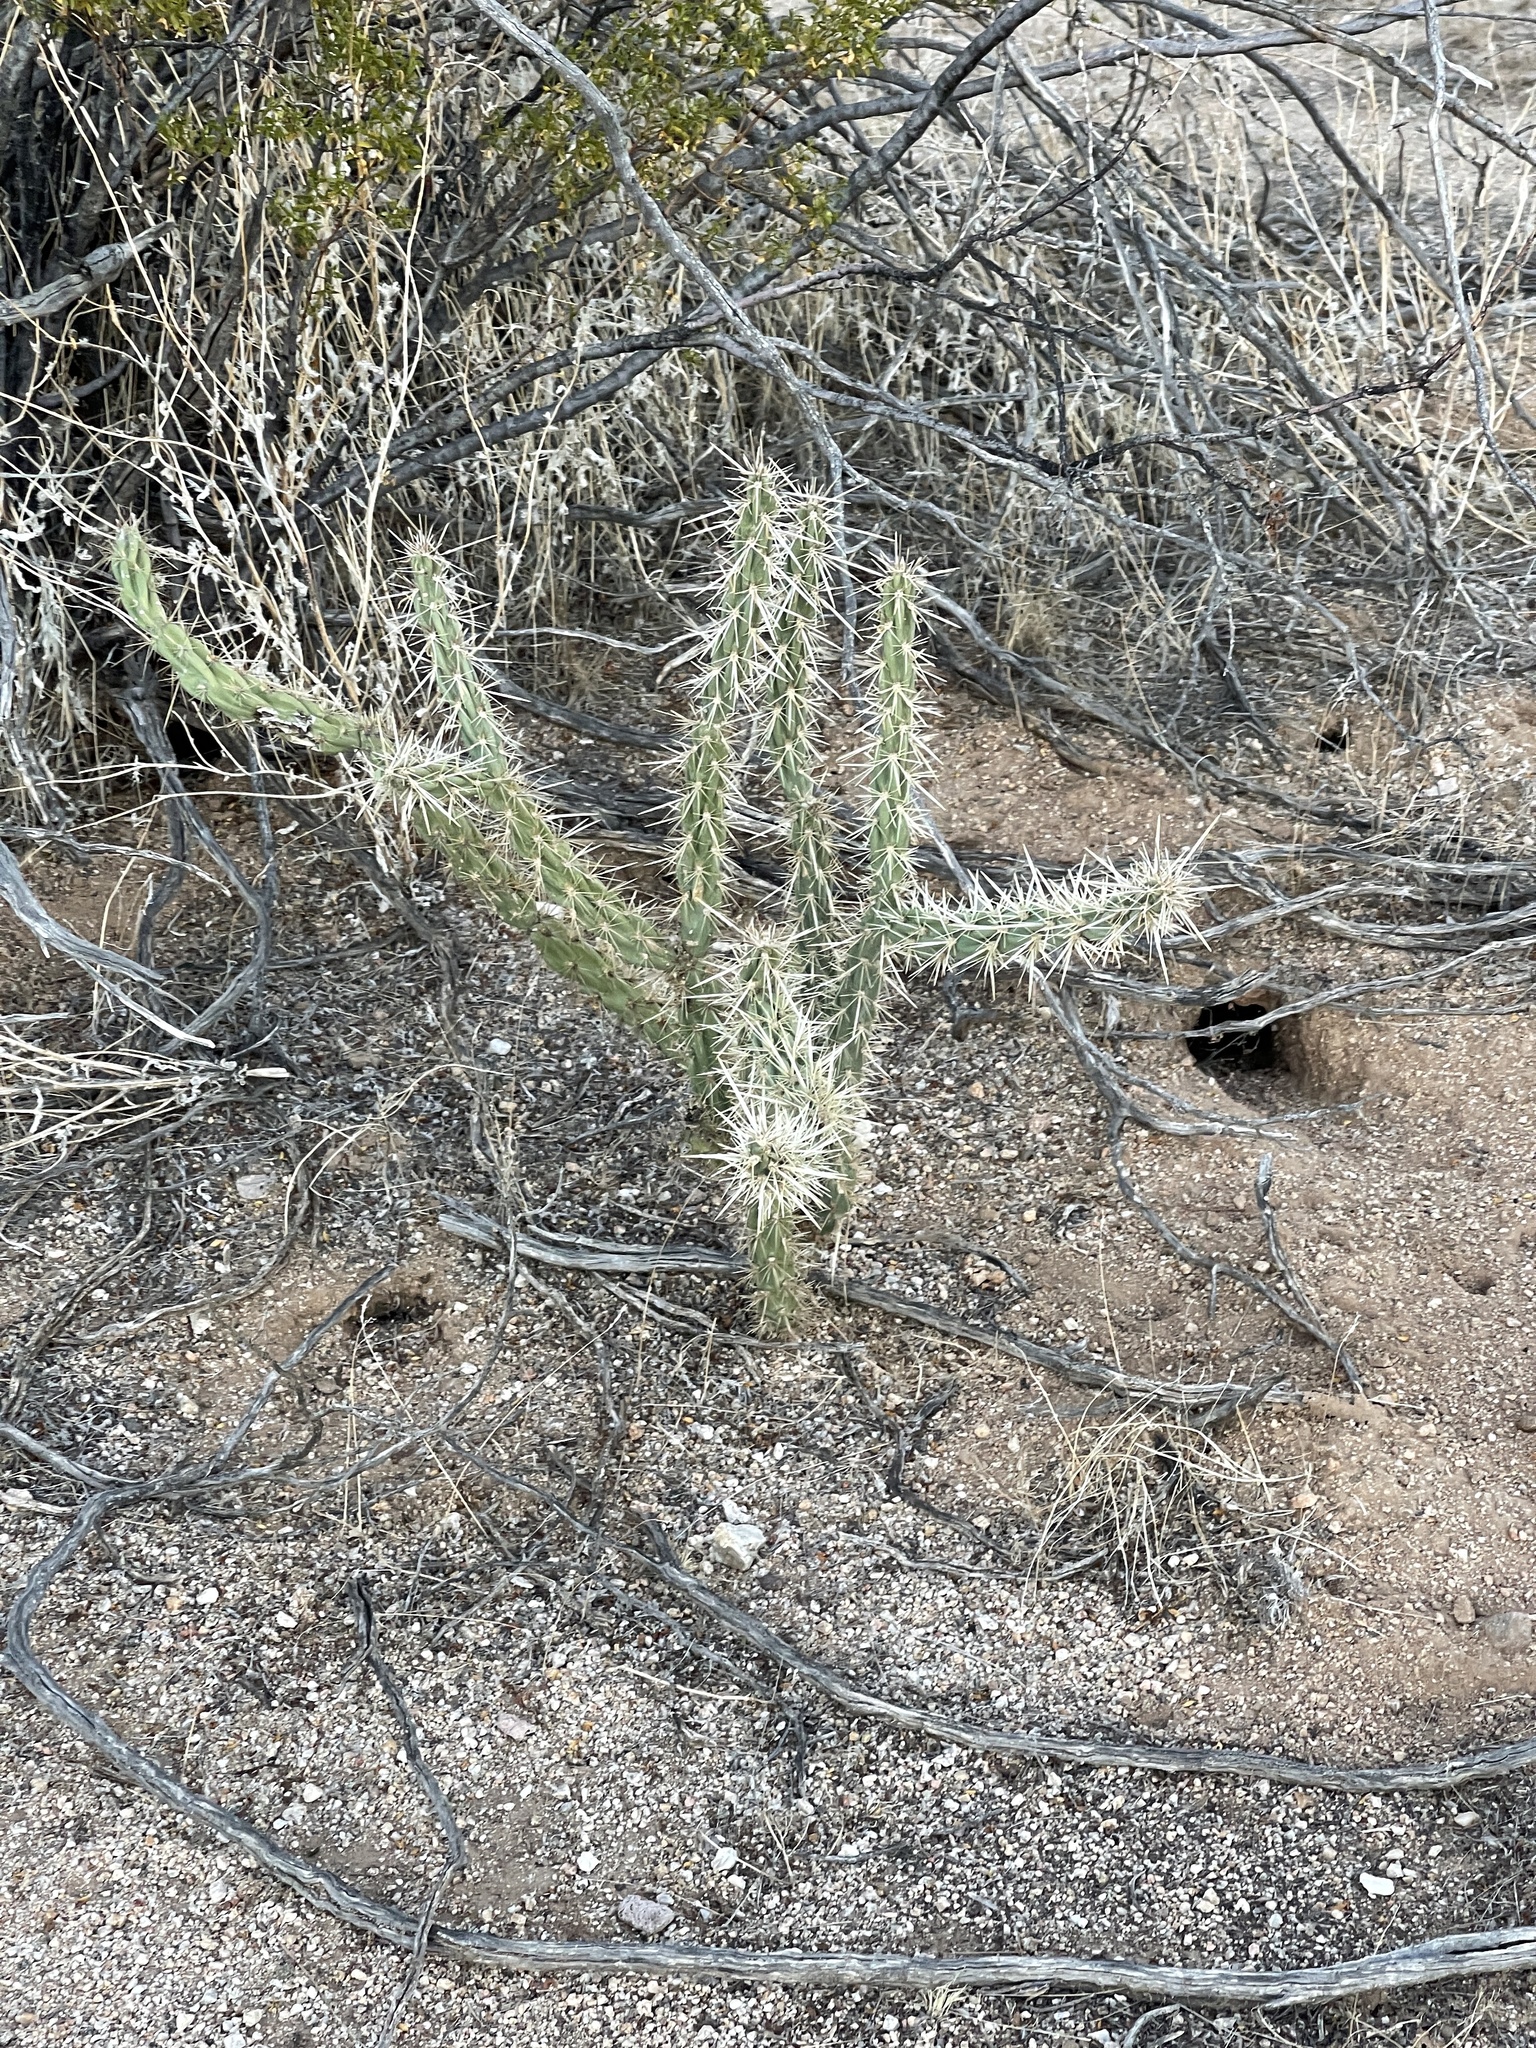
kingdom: Plantae
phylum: Tracheophyta
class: Magnoliopsida
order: Caryophyllales
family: Cactaceae
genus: Cylindropuntia
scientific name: Cylindropuntia acanthocarpa
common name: Buckhorn cholla
